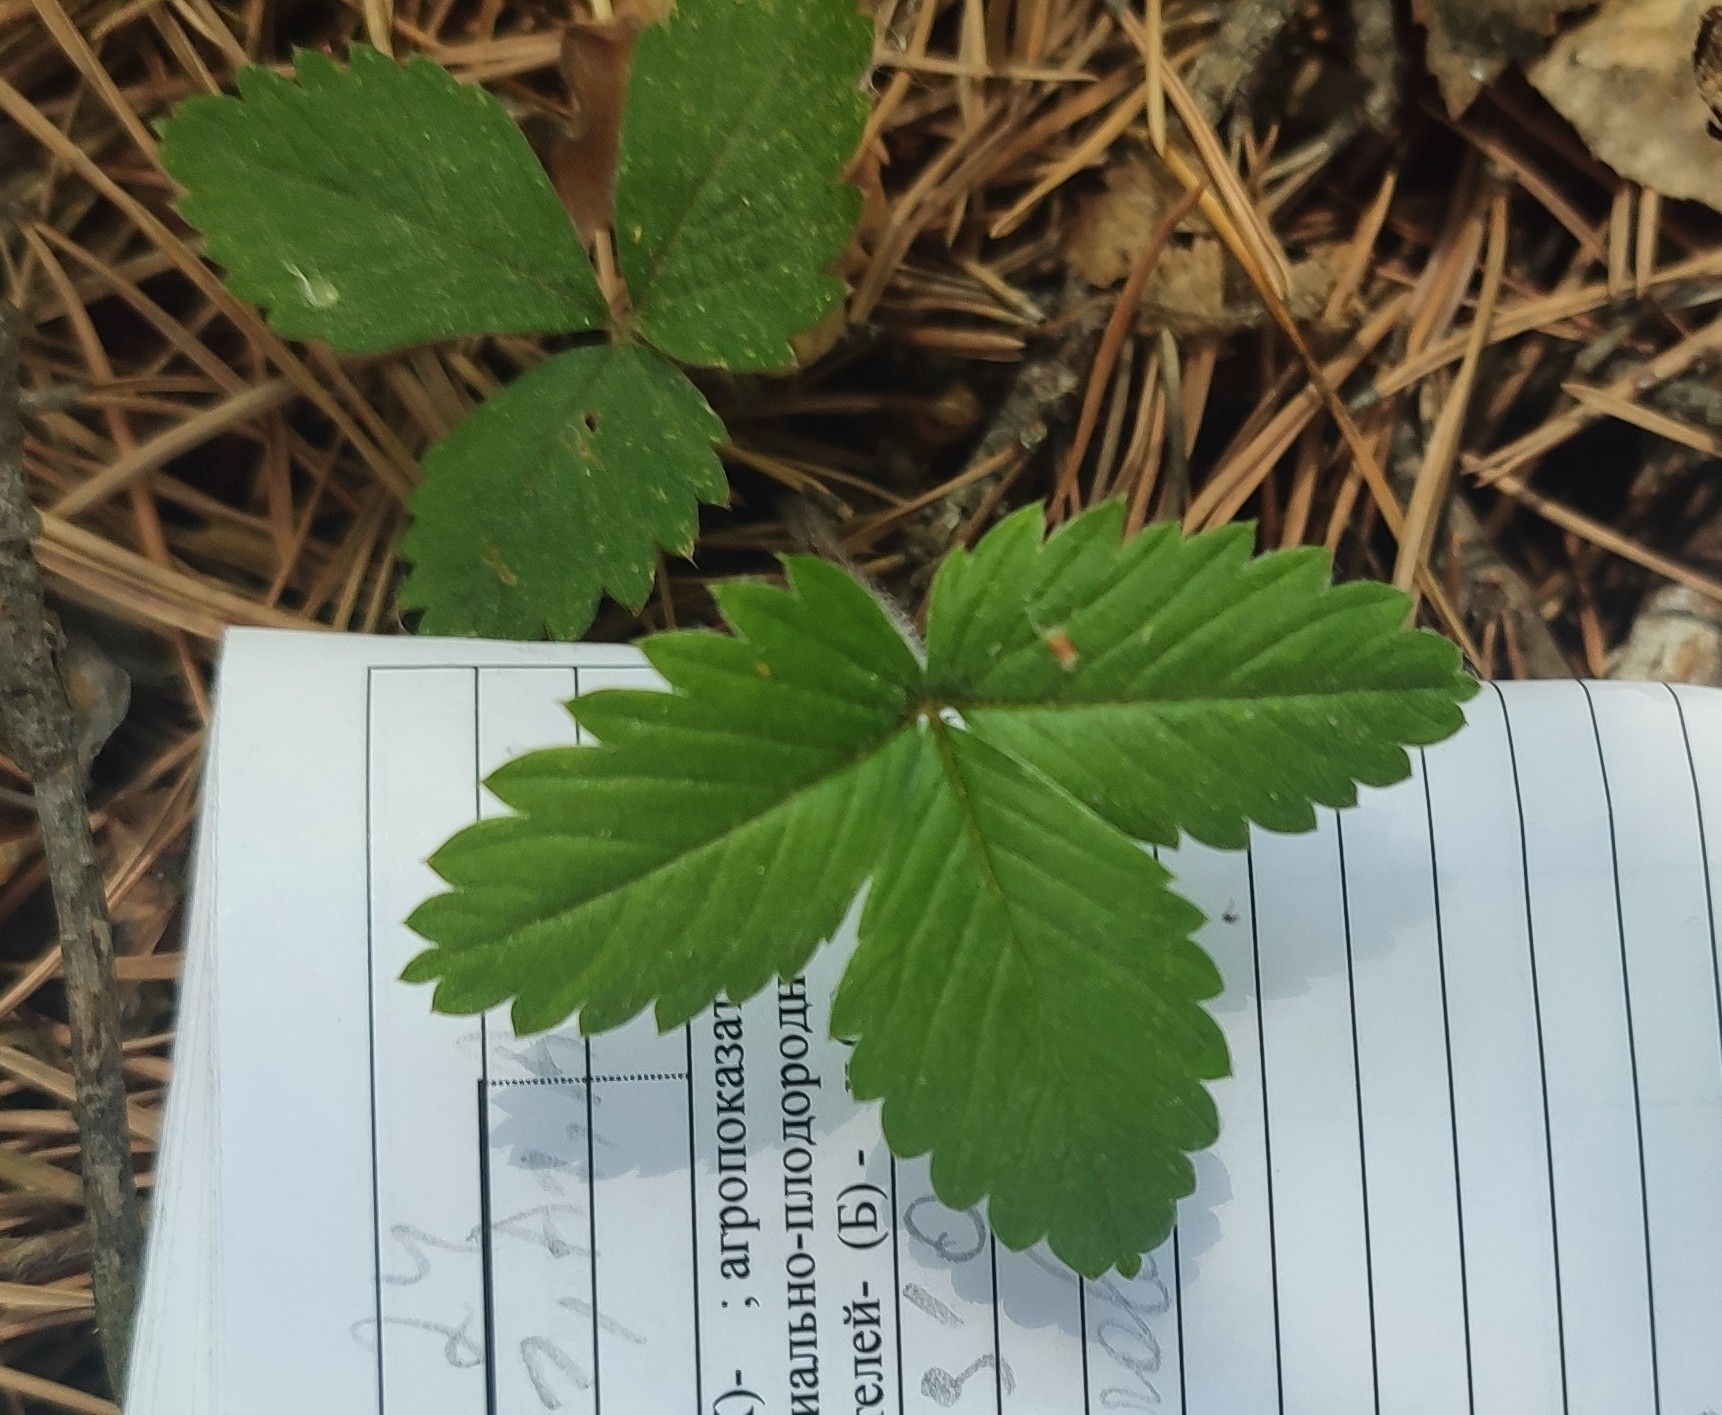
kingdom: Plantae
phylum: Tracheophyta
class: Magnoliopsida
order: Rosales
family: Rosaceae
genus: Fragaria
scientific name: Fragaria vesca
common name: Wild strawberry
